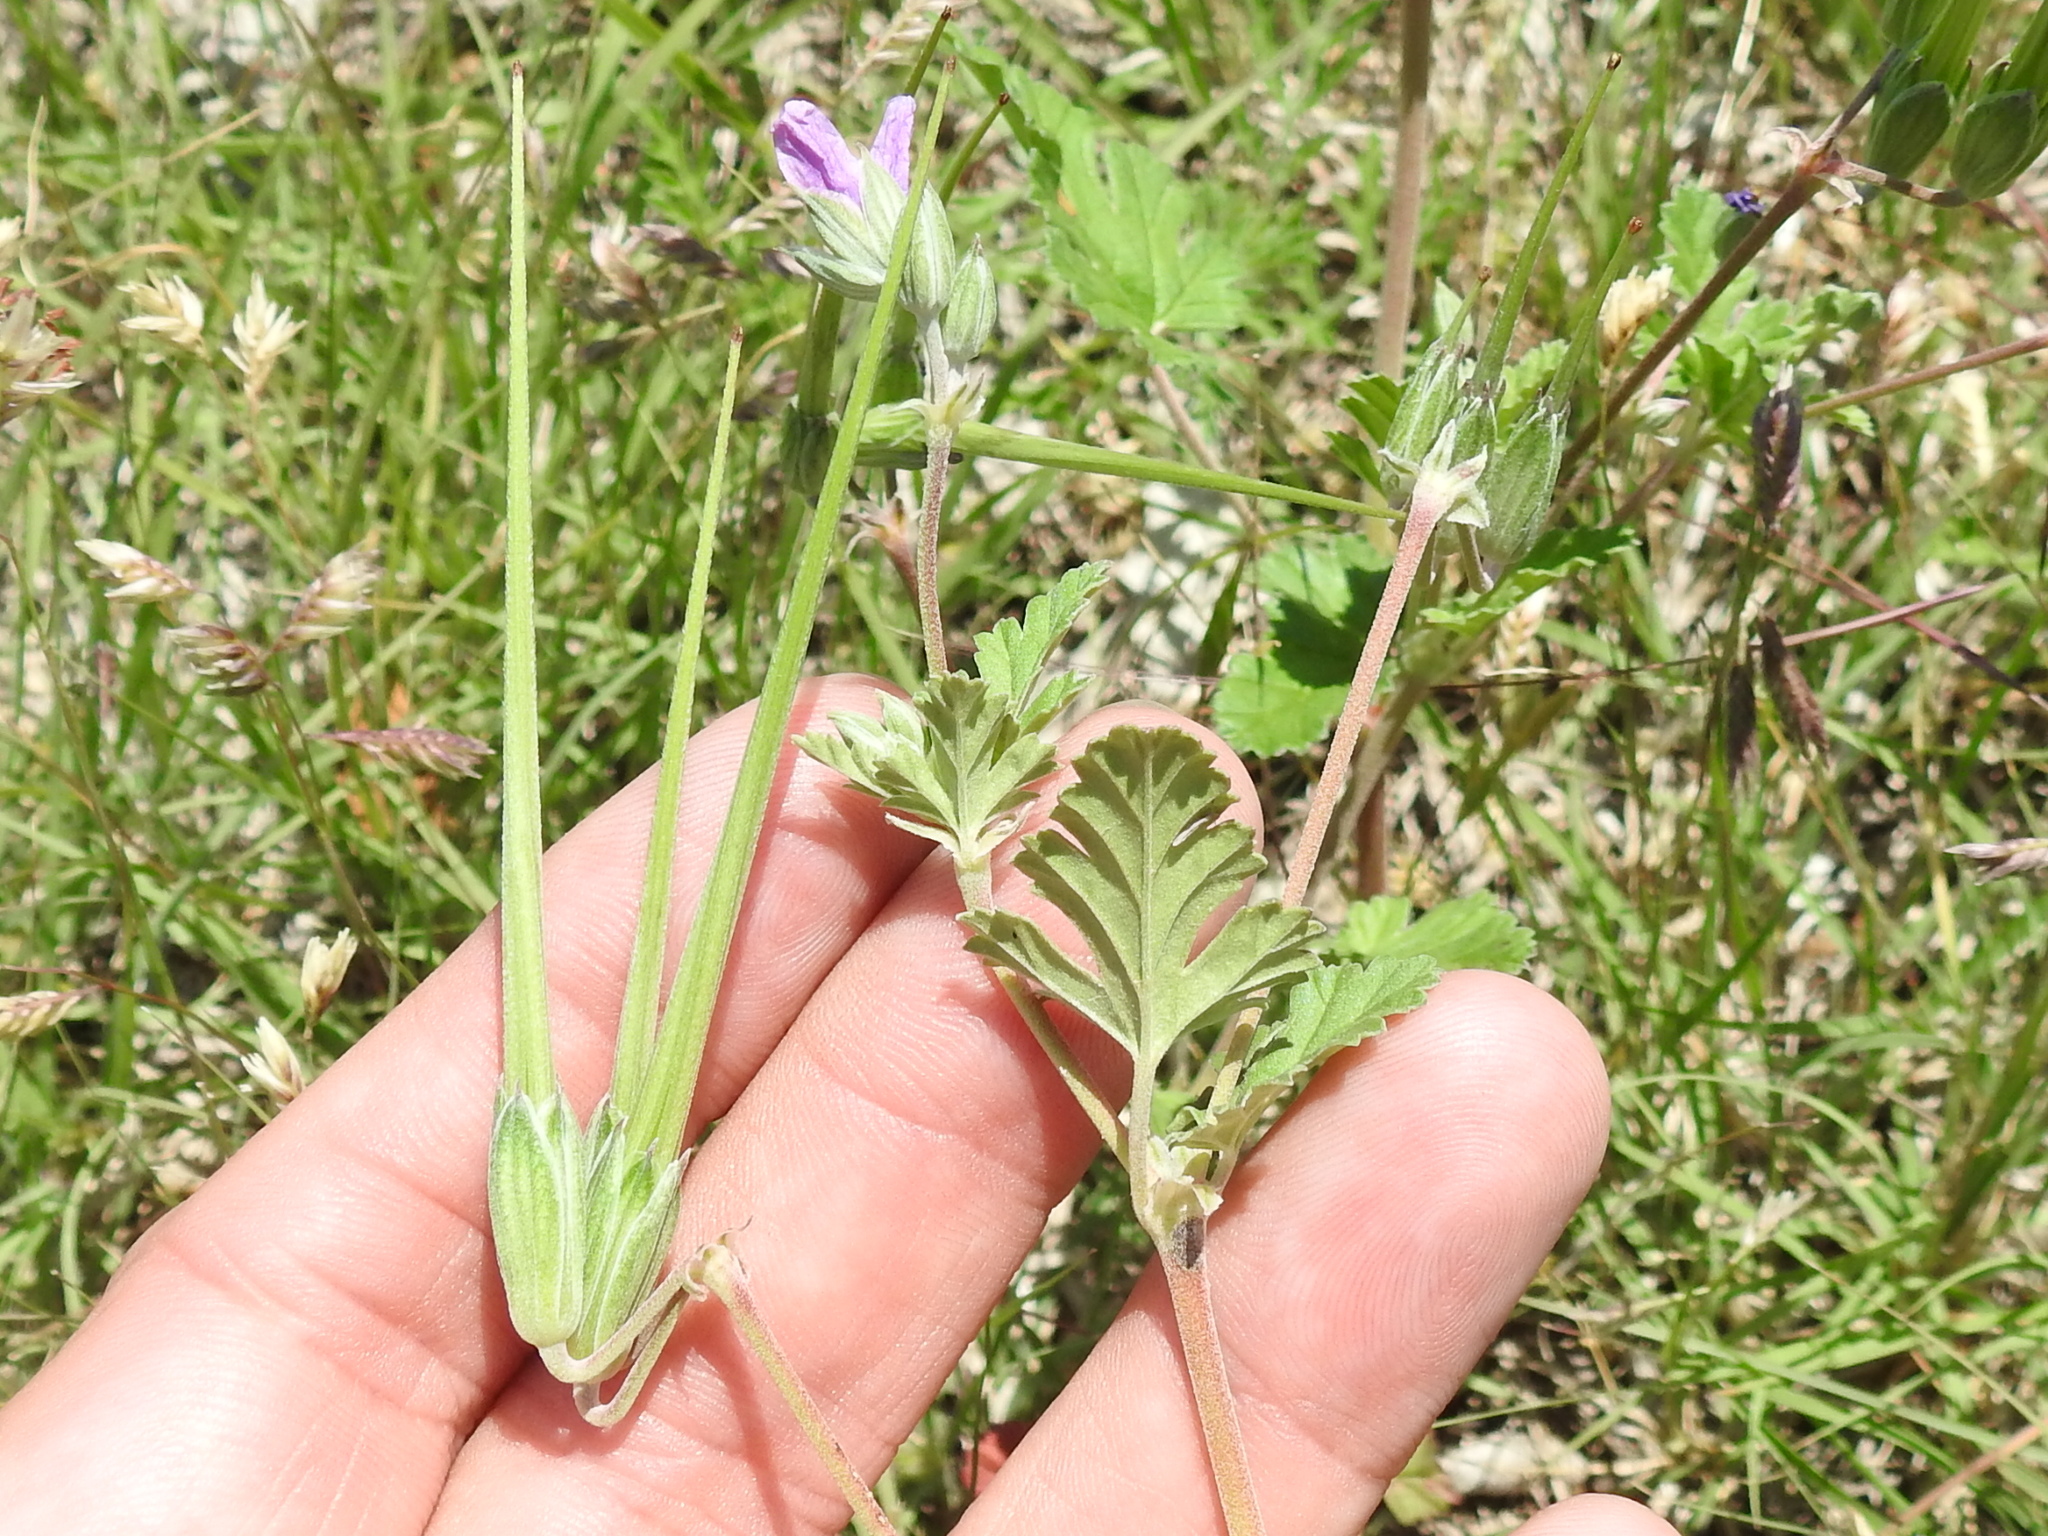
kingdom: Plantae
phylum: Tracheophyta
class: Magnoliopsida
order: Geraniales
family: Geraniaceae
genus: Erodium
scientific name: Erodium texanum
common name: Texas stork's-bill
